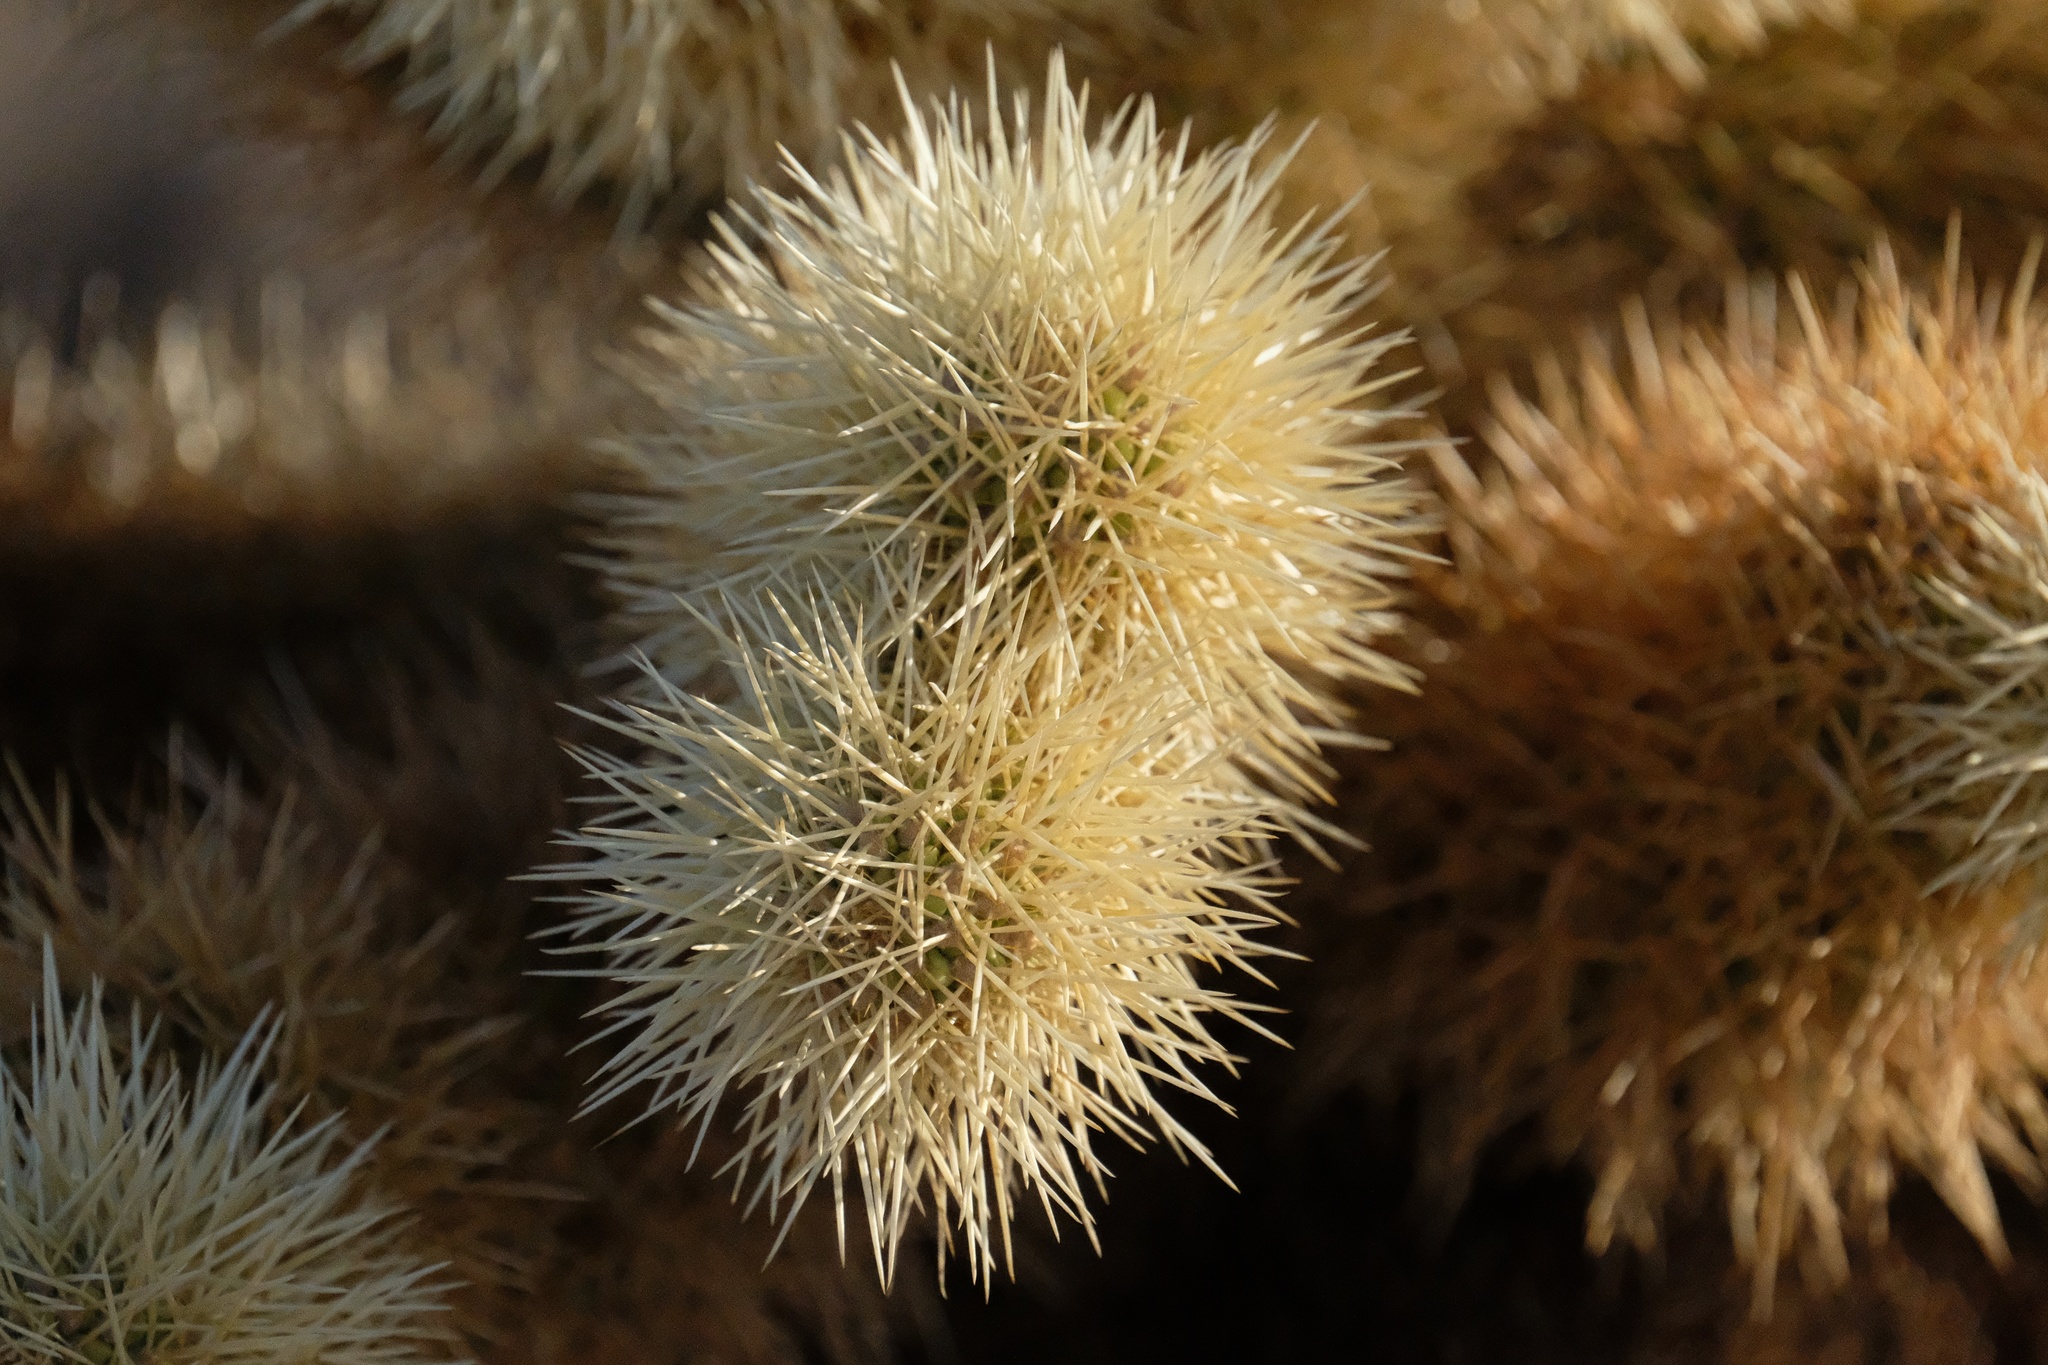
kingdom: Plantae
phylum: Tracheophyta
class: Magnoliopsida
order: Caryophyllales
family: Cactaceae
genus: Cylindropuntia
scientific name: Cylindropuntia fosbergii
